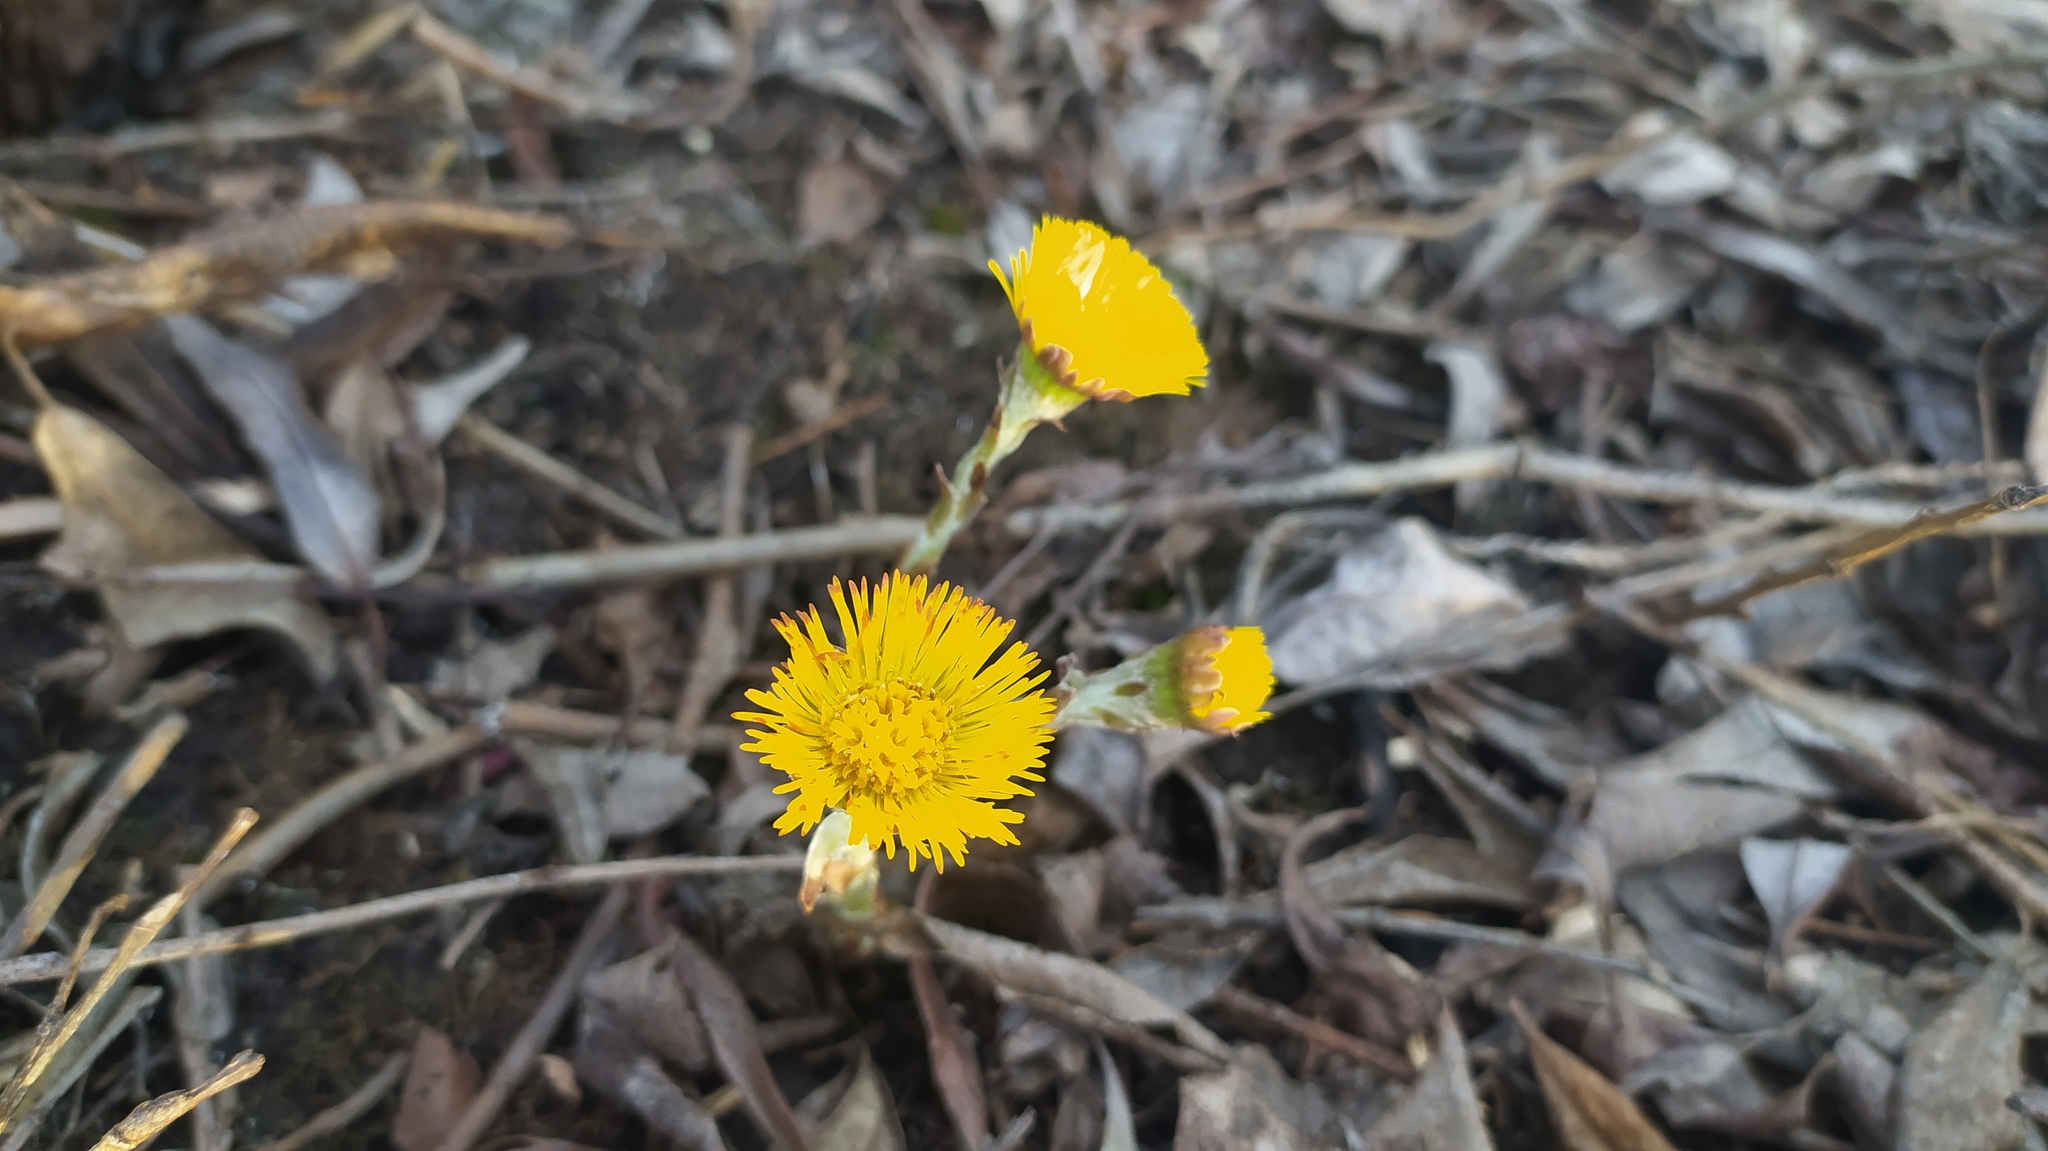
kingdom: Plantae
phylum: Tracheophyta
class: Magnoliopsida
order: Asterales
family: Asteraceae
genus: Tussilago
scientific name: Tussilago farfara
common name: Coltsfoot
